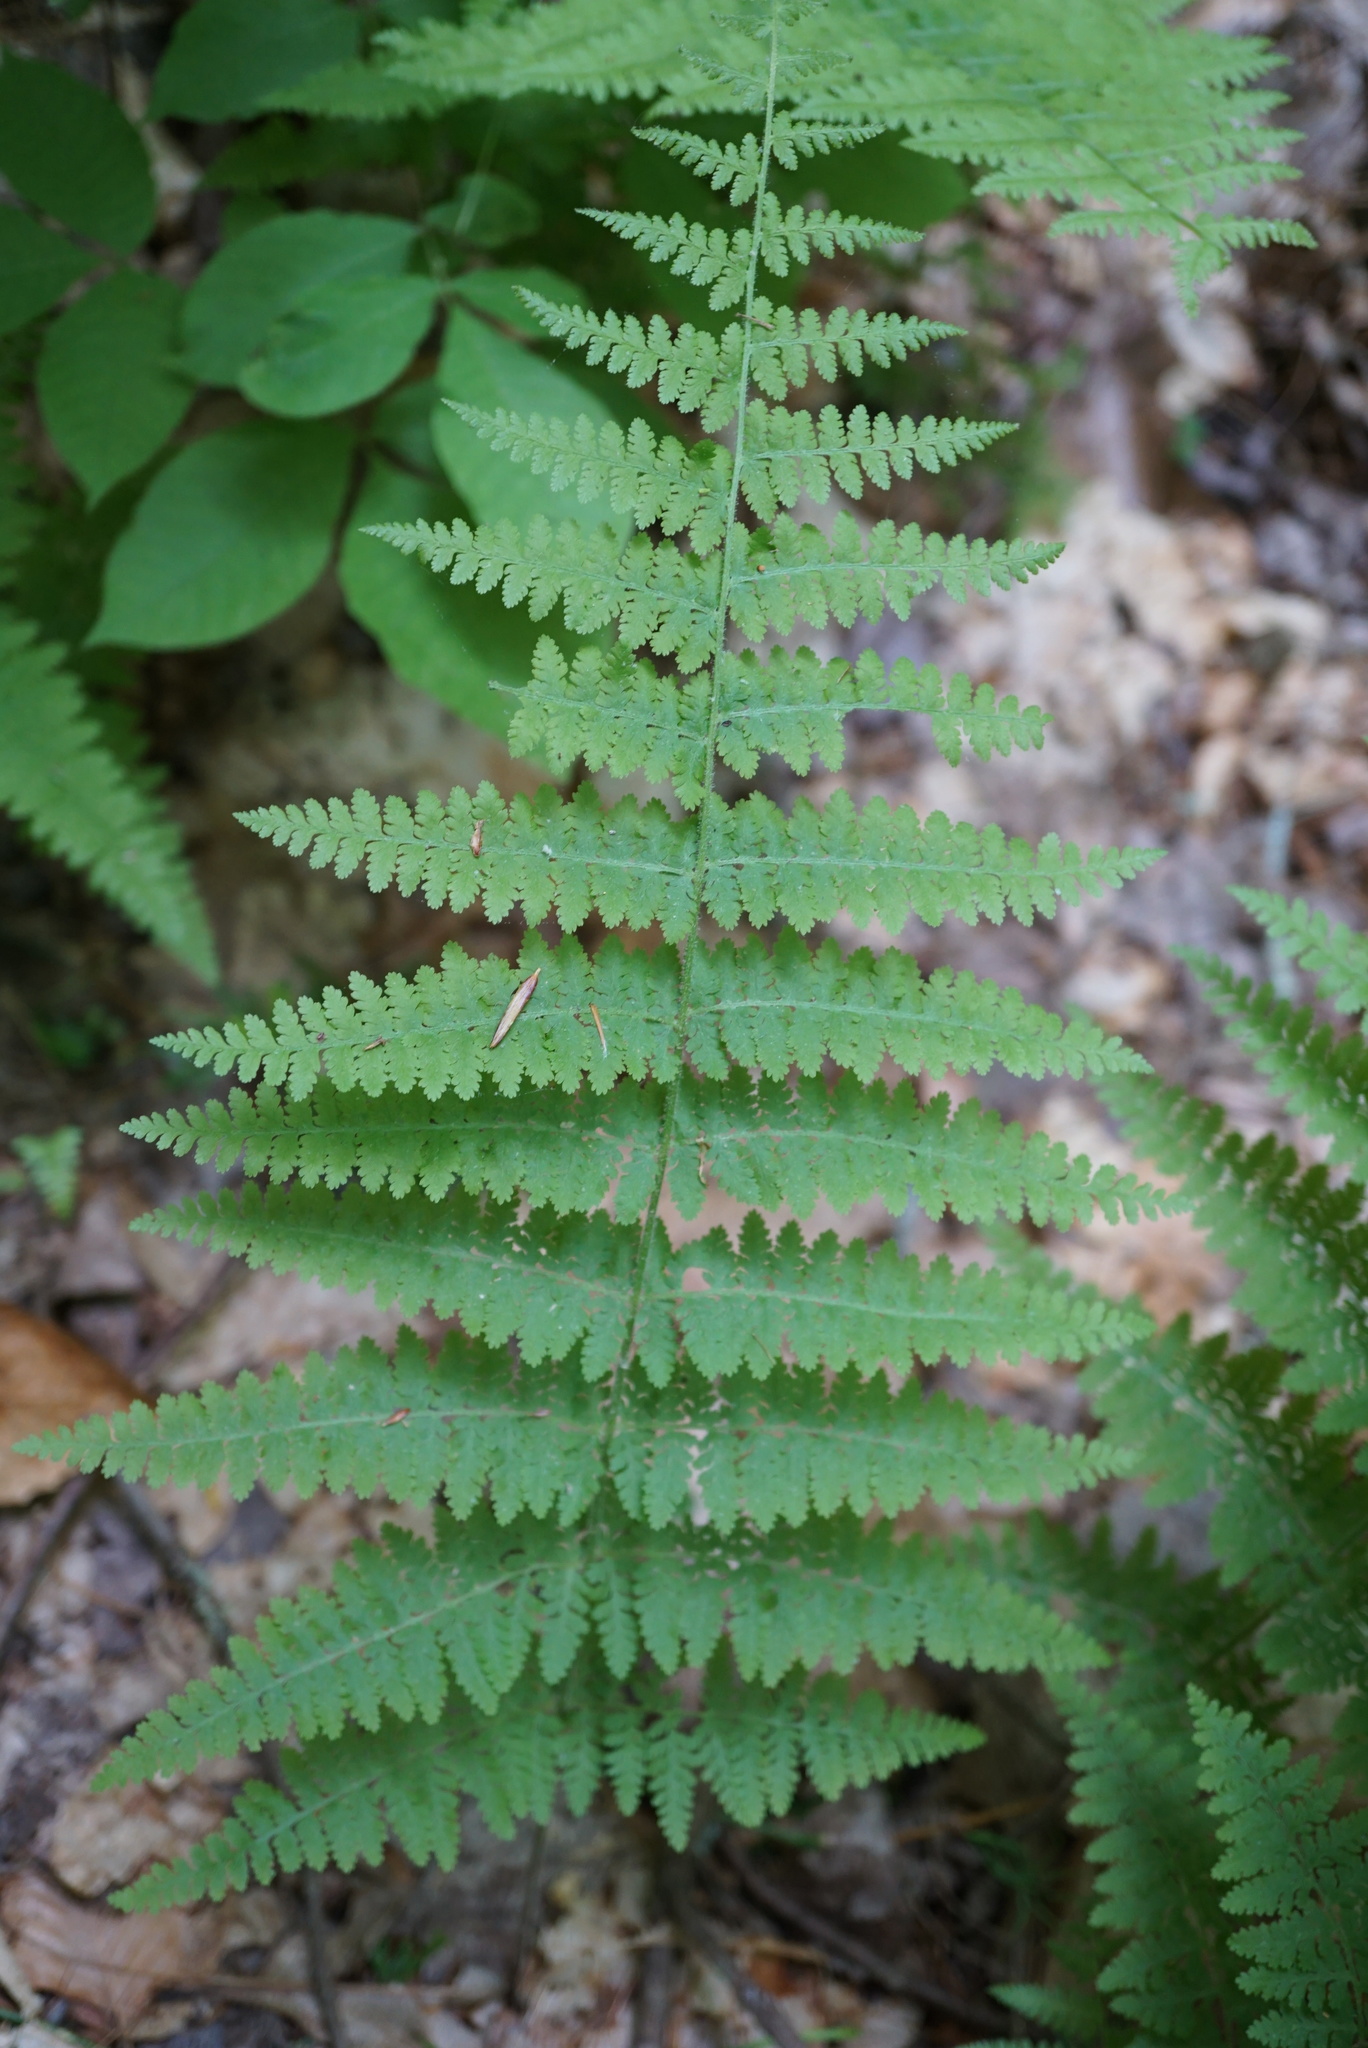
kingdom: Plantae
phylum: Tracheophyta
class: Polypodiopsida
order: Polypodiales
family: Dennstaedtiaceae
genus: Sitobolium
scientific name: Sitobolium punctilobum
